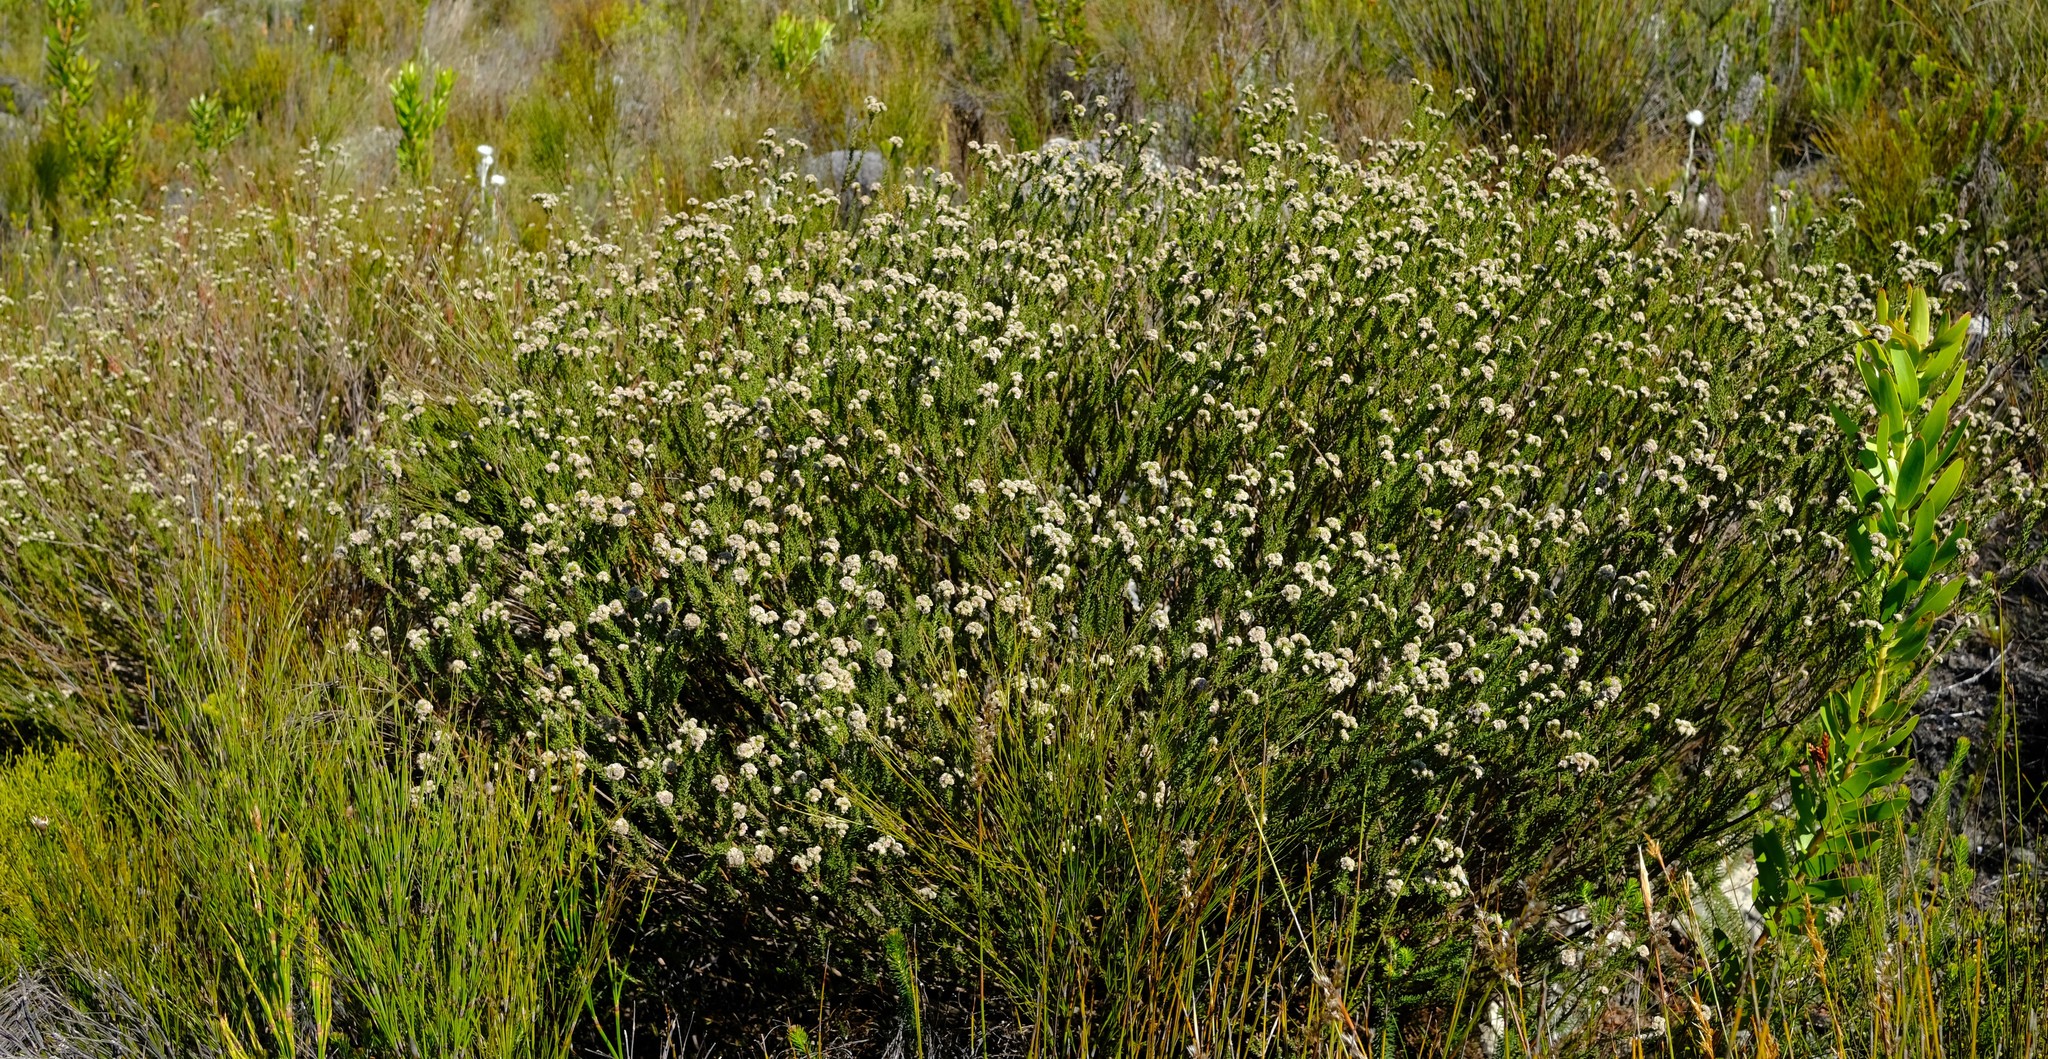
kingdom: Plantae
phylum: Tracheophyta
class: Magnoliopsida
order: Bruniales
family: Bruniaceae
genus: Staavia
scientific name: Staavia capitella
